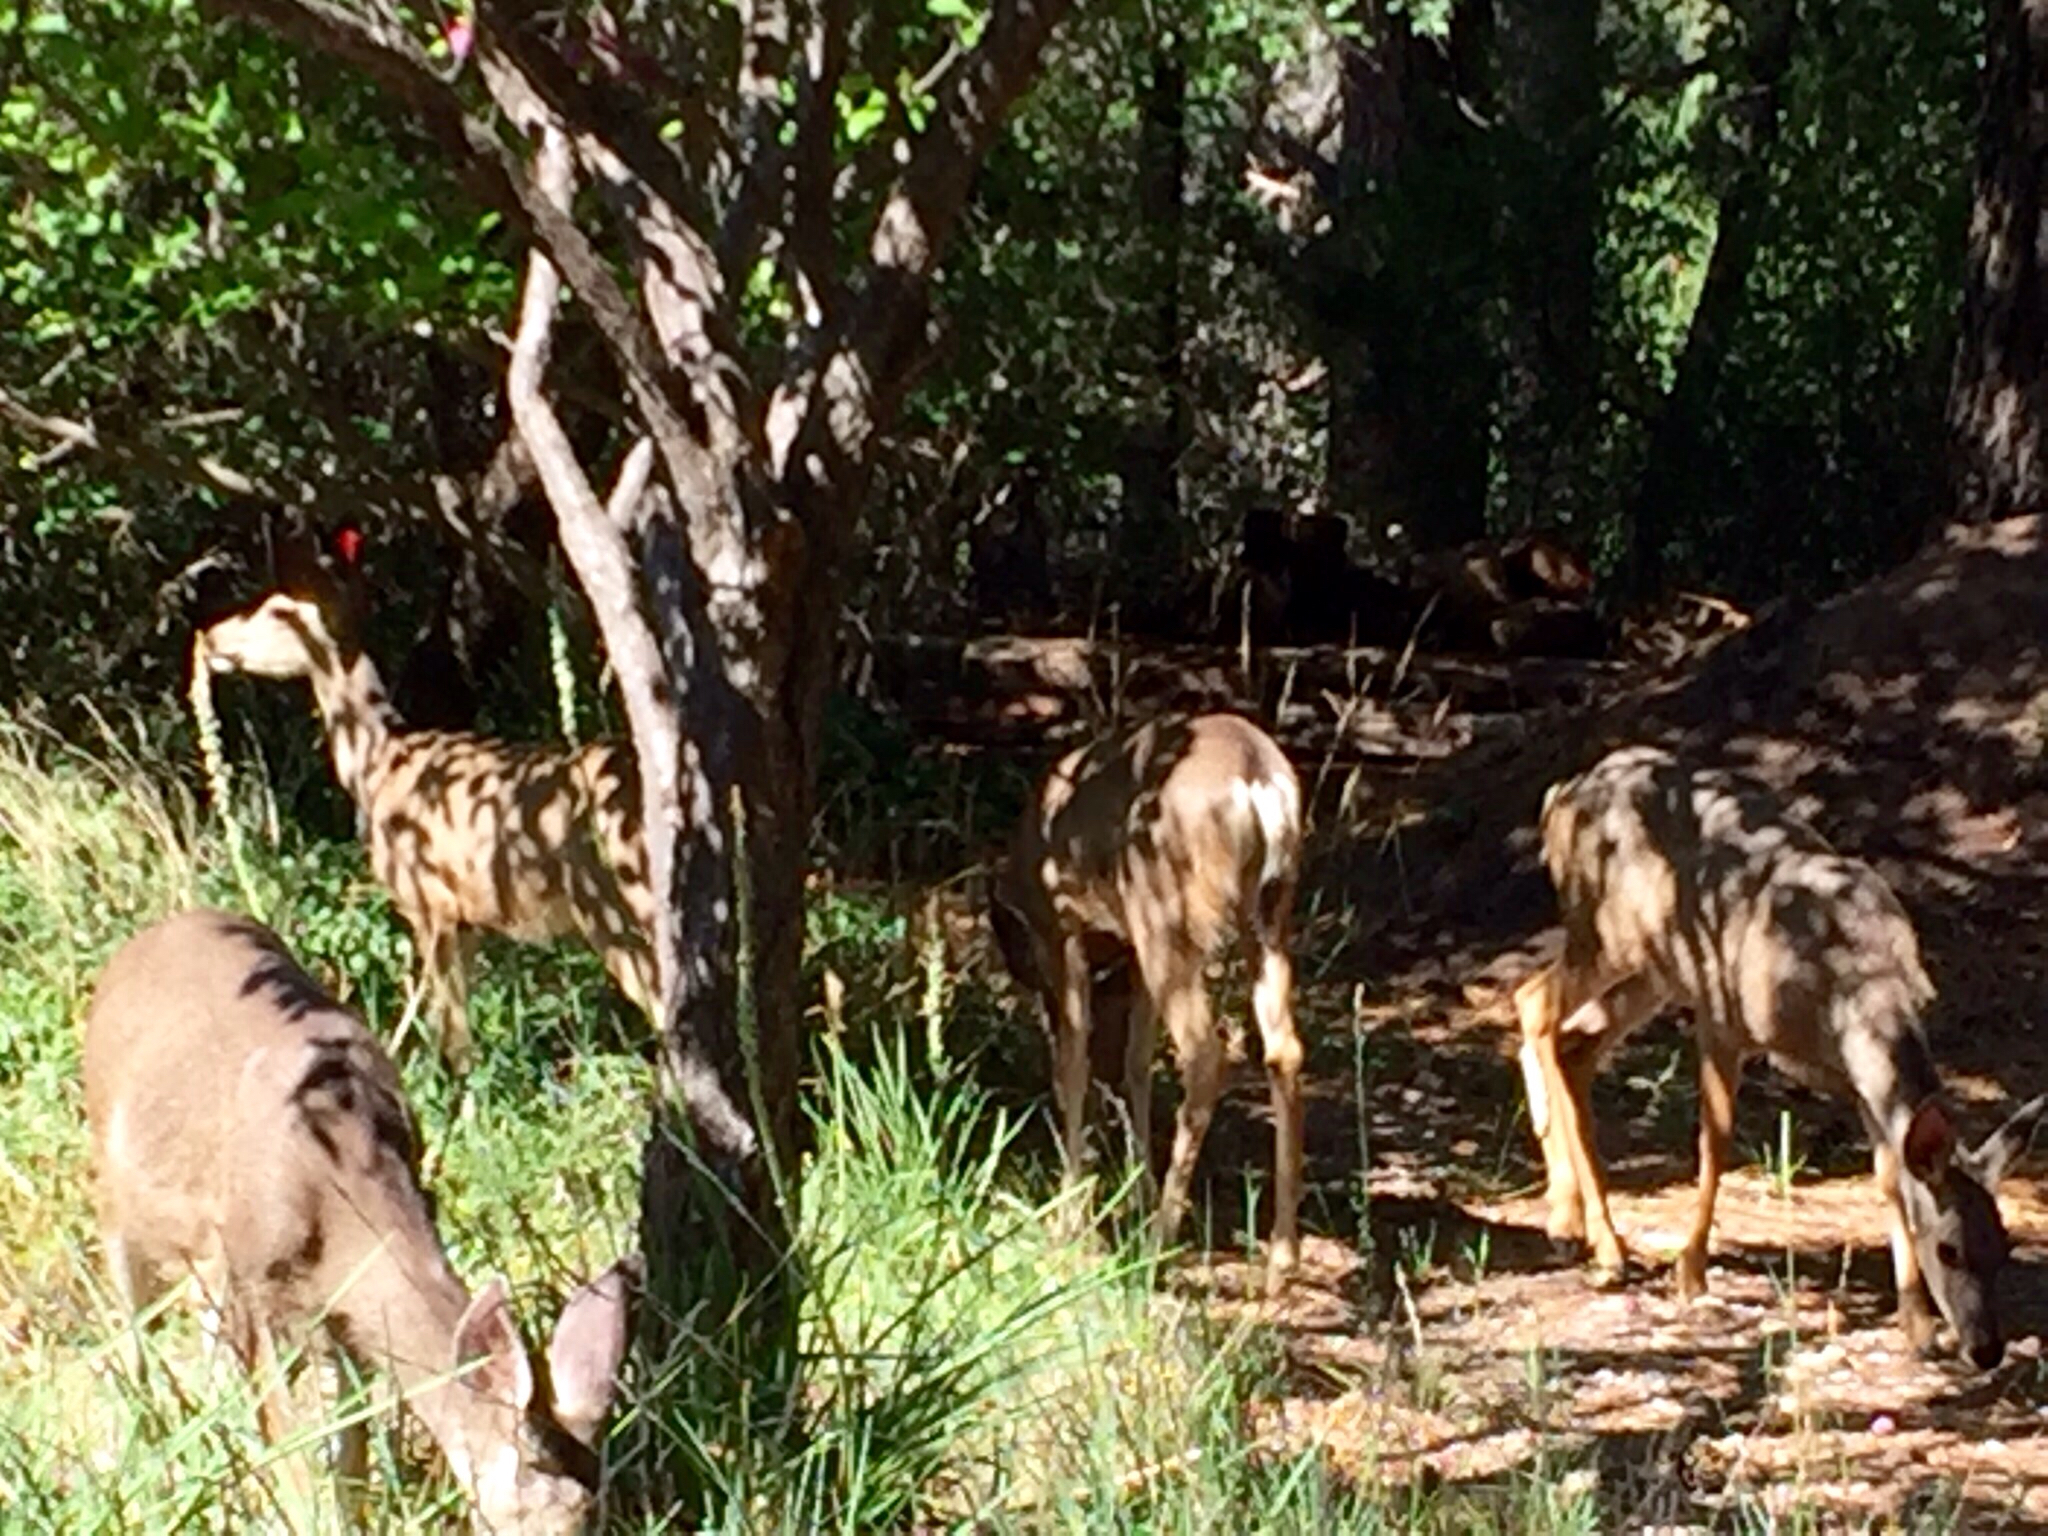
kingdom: Animalia
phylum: Chordata
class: Mammalia
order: Artiodactyla
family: Cervidae
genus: Odocoileus
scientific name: Odocoileus hemionus
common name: Mule deer
